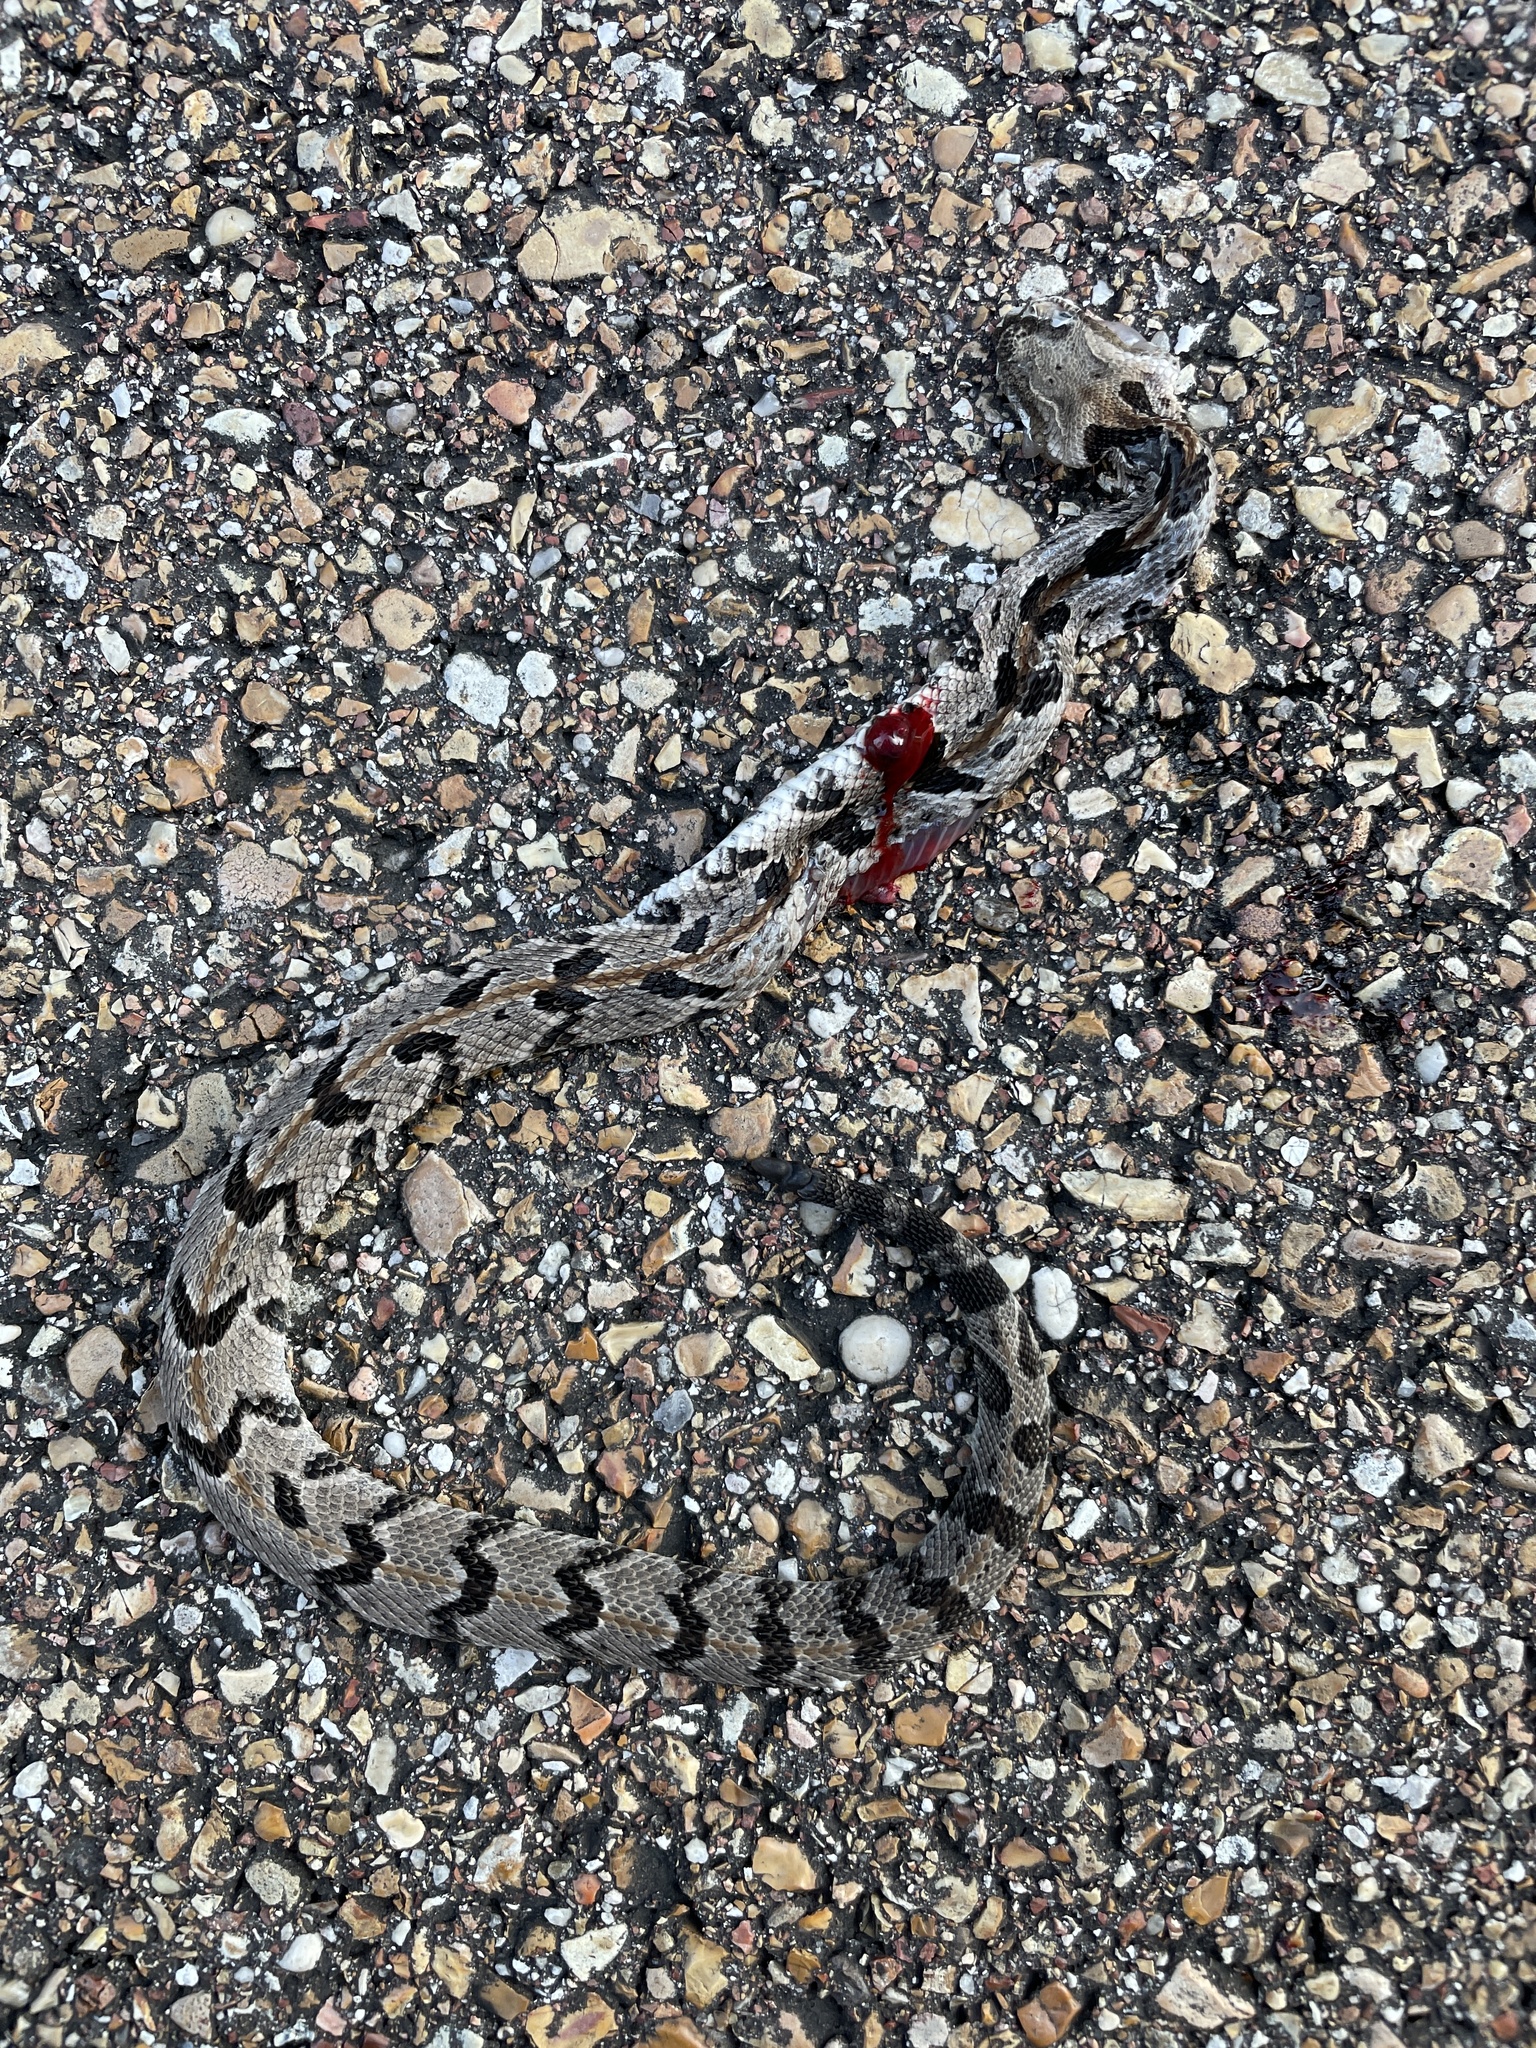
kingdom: Animalia
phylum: Chordata
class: Squamata
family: Viperidae
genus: Crotalus
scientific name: Crotalus horridus
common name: Timber rattlesnake
